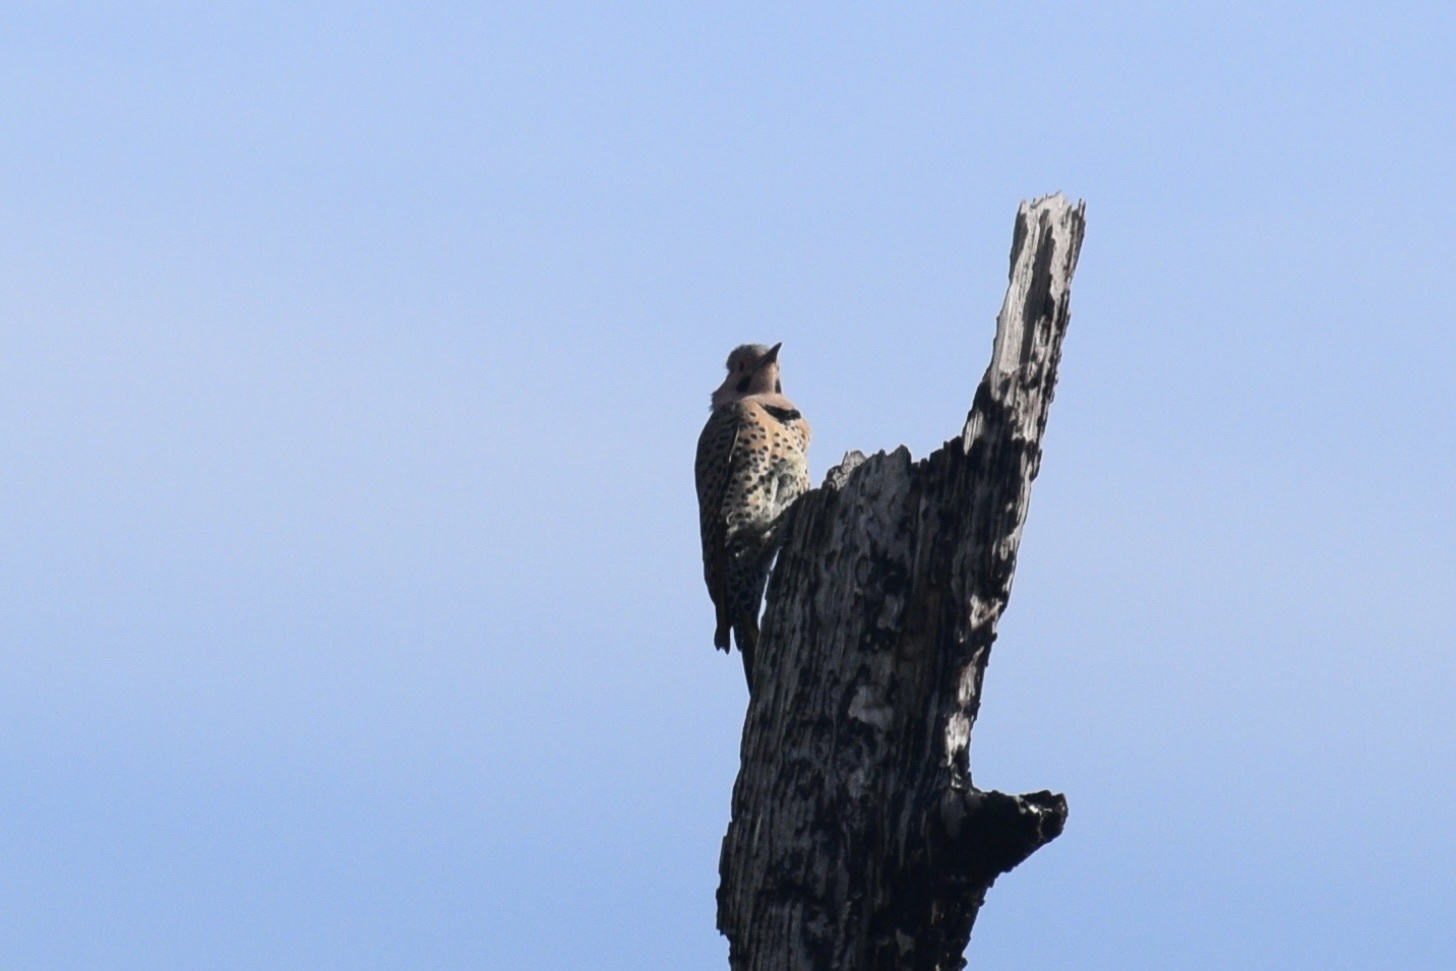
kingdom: Animalia
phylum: Chordata
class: Aves
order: Piciformes
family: Picidae
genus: Colaptes
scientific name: Colaptes auratus
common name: Northern flicker
